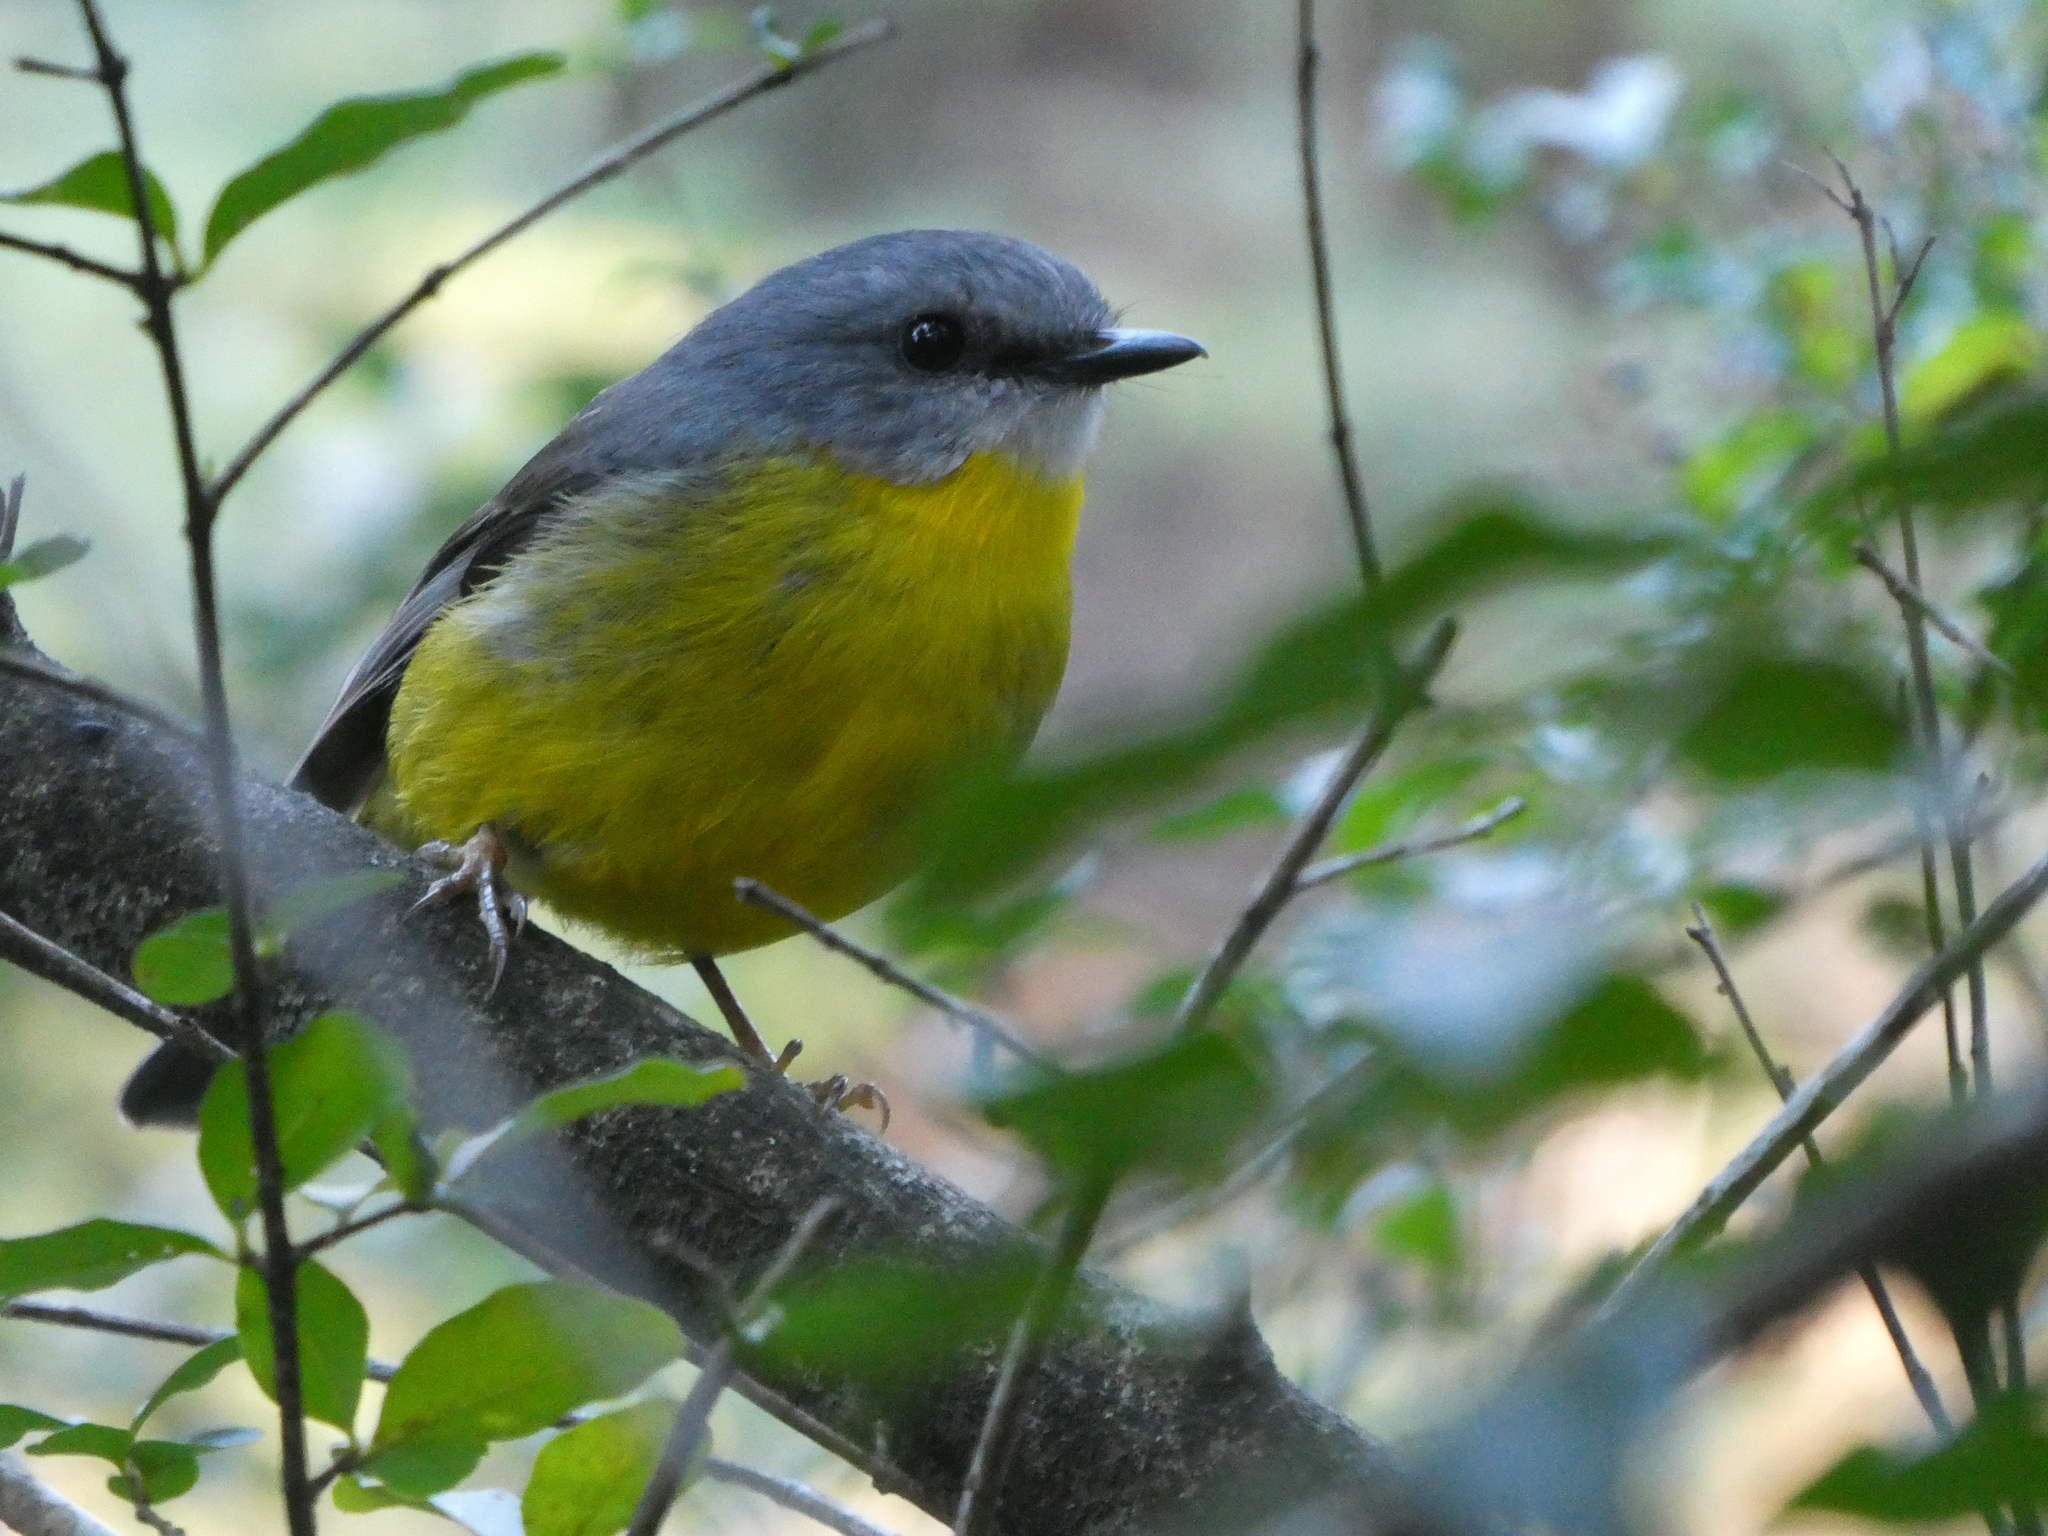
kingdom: Animalia
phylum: Chordata
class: Aves
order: Passeriformes
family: Petroicidae
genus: Eopsaltria
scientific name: Eopsaltria australis
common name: Eastern yellow robin
